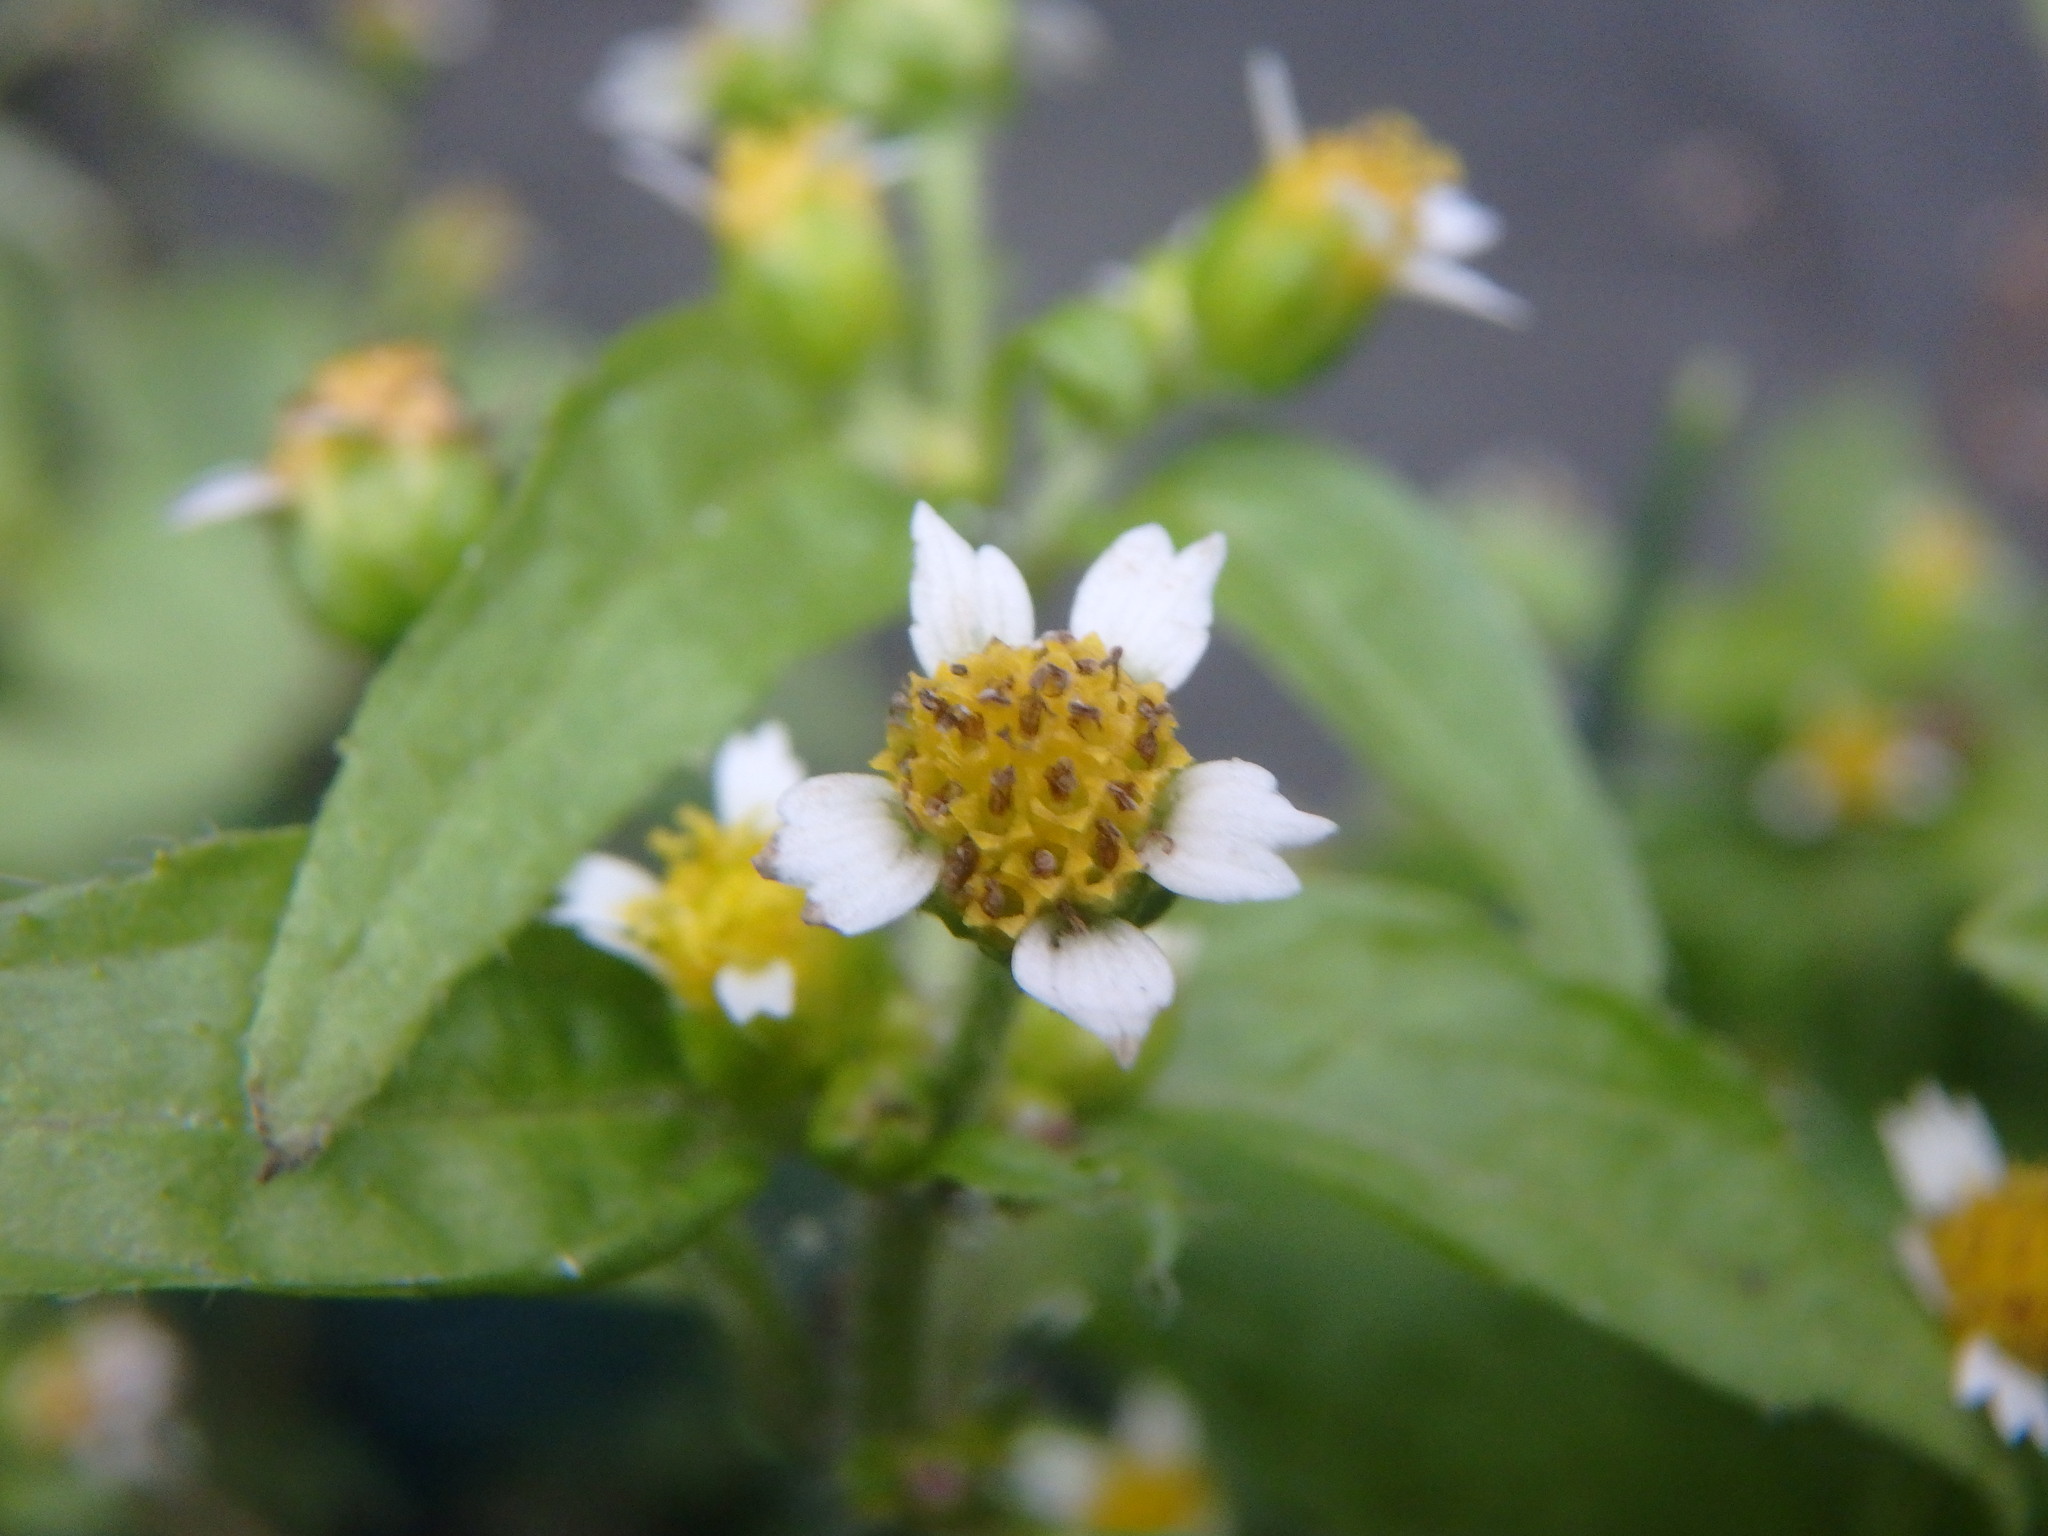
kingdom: Plantae
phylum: Tracheophyta
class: Magnoliopsida
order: Asterales
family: Asteraceae
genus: Galinsoga
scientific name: Galinsoga quadriradiata
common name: Shaggy soldier
